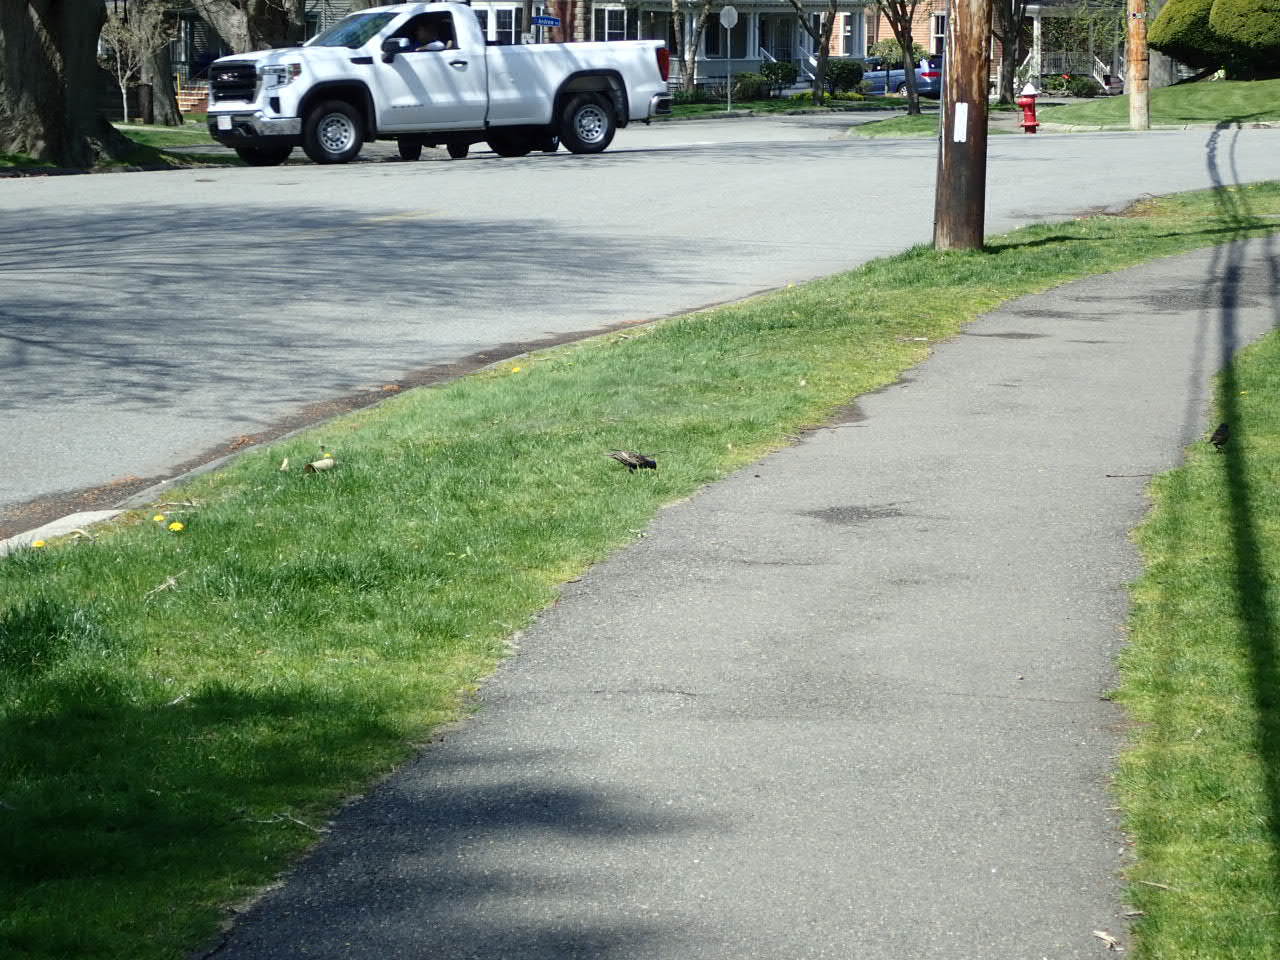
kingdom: Animalia
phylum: Chordata
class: Aves
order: Passeriformes
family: Sturnidae
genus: Sturnus
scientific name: Sturnus vulgaris
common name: Common starling
